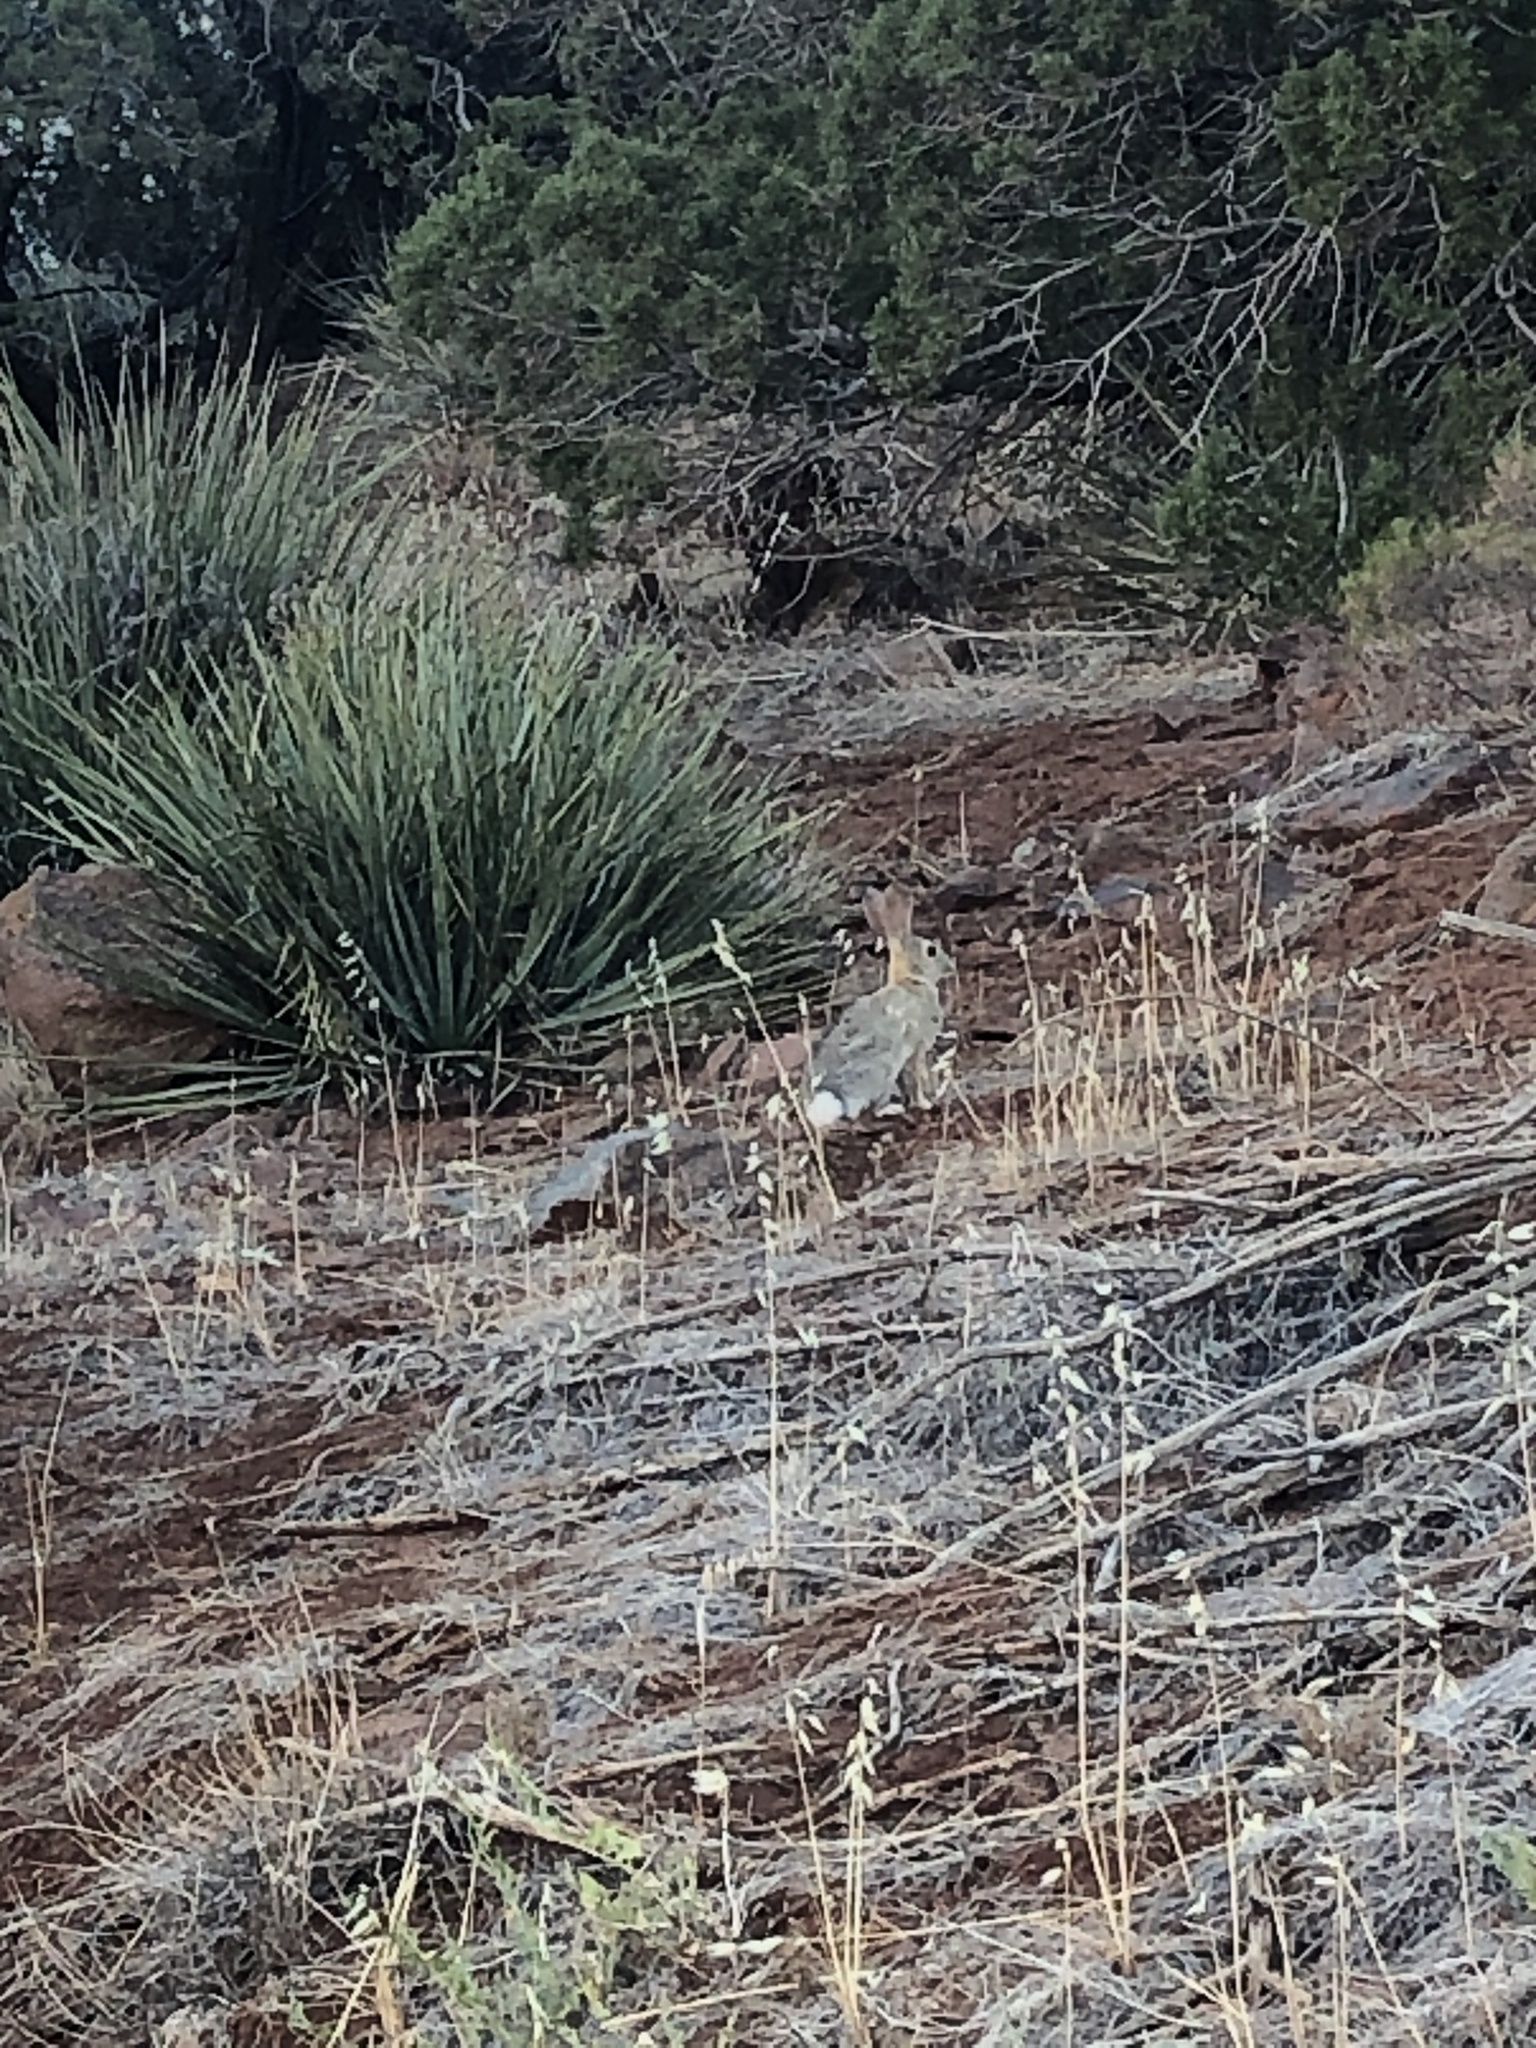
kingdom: Animalia
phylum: Chordata
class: Mammalia
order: Lagomorpha
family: Leporidae
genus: Sylvilagus
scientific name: Sylvilagus audubonii
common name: Desert cottontail
